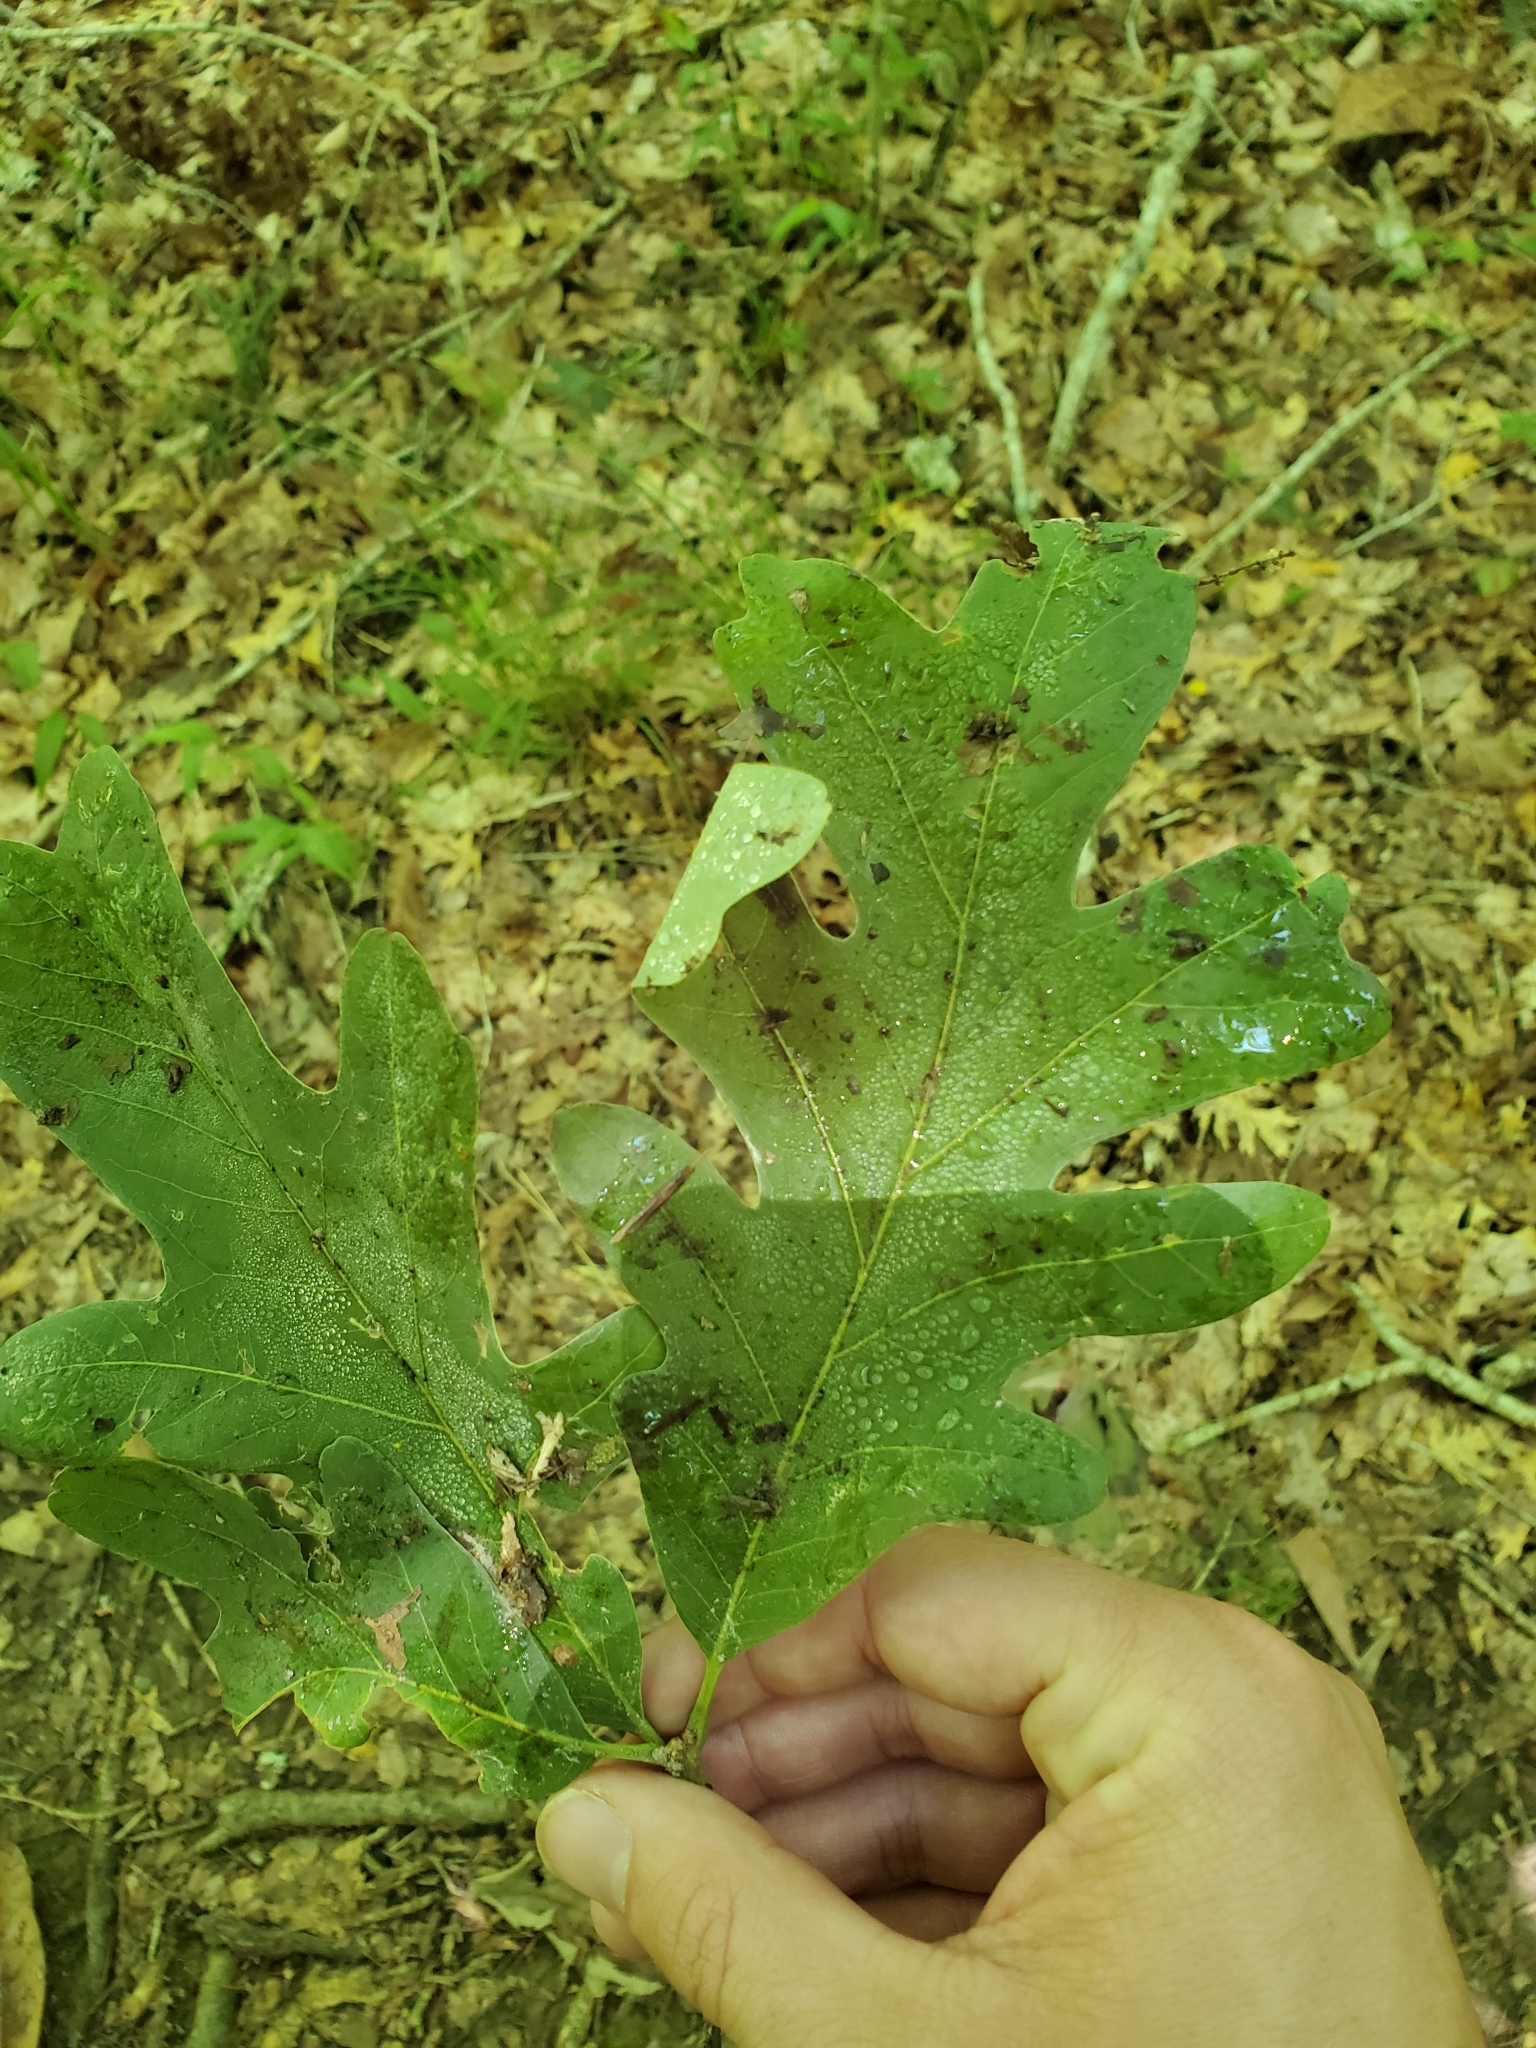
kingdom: Plantae
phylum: Tracheophyta
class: Magnoliopsida
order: Fagales
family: Fagaceae
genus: Quercus
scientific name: Quercus alba
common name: White oak
